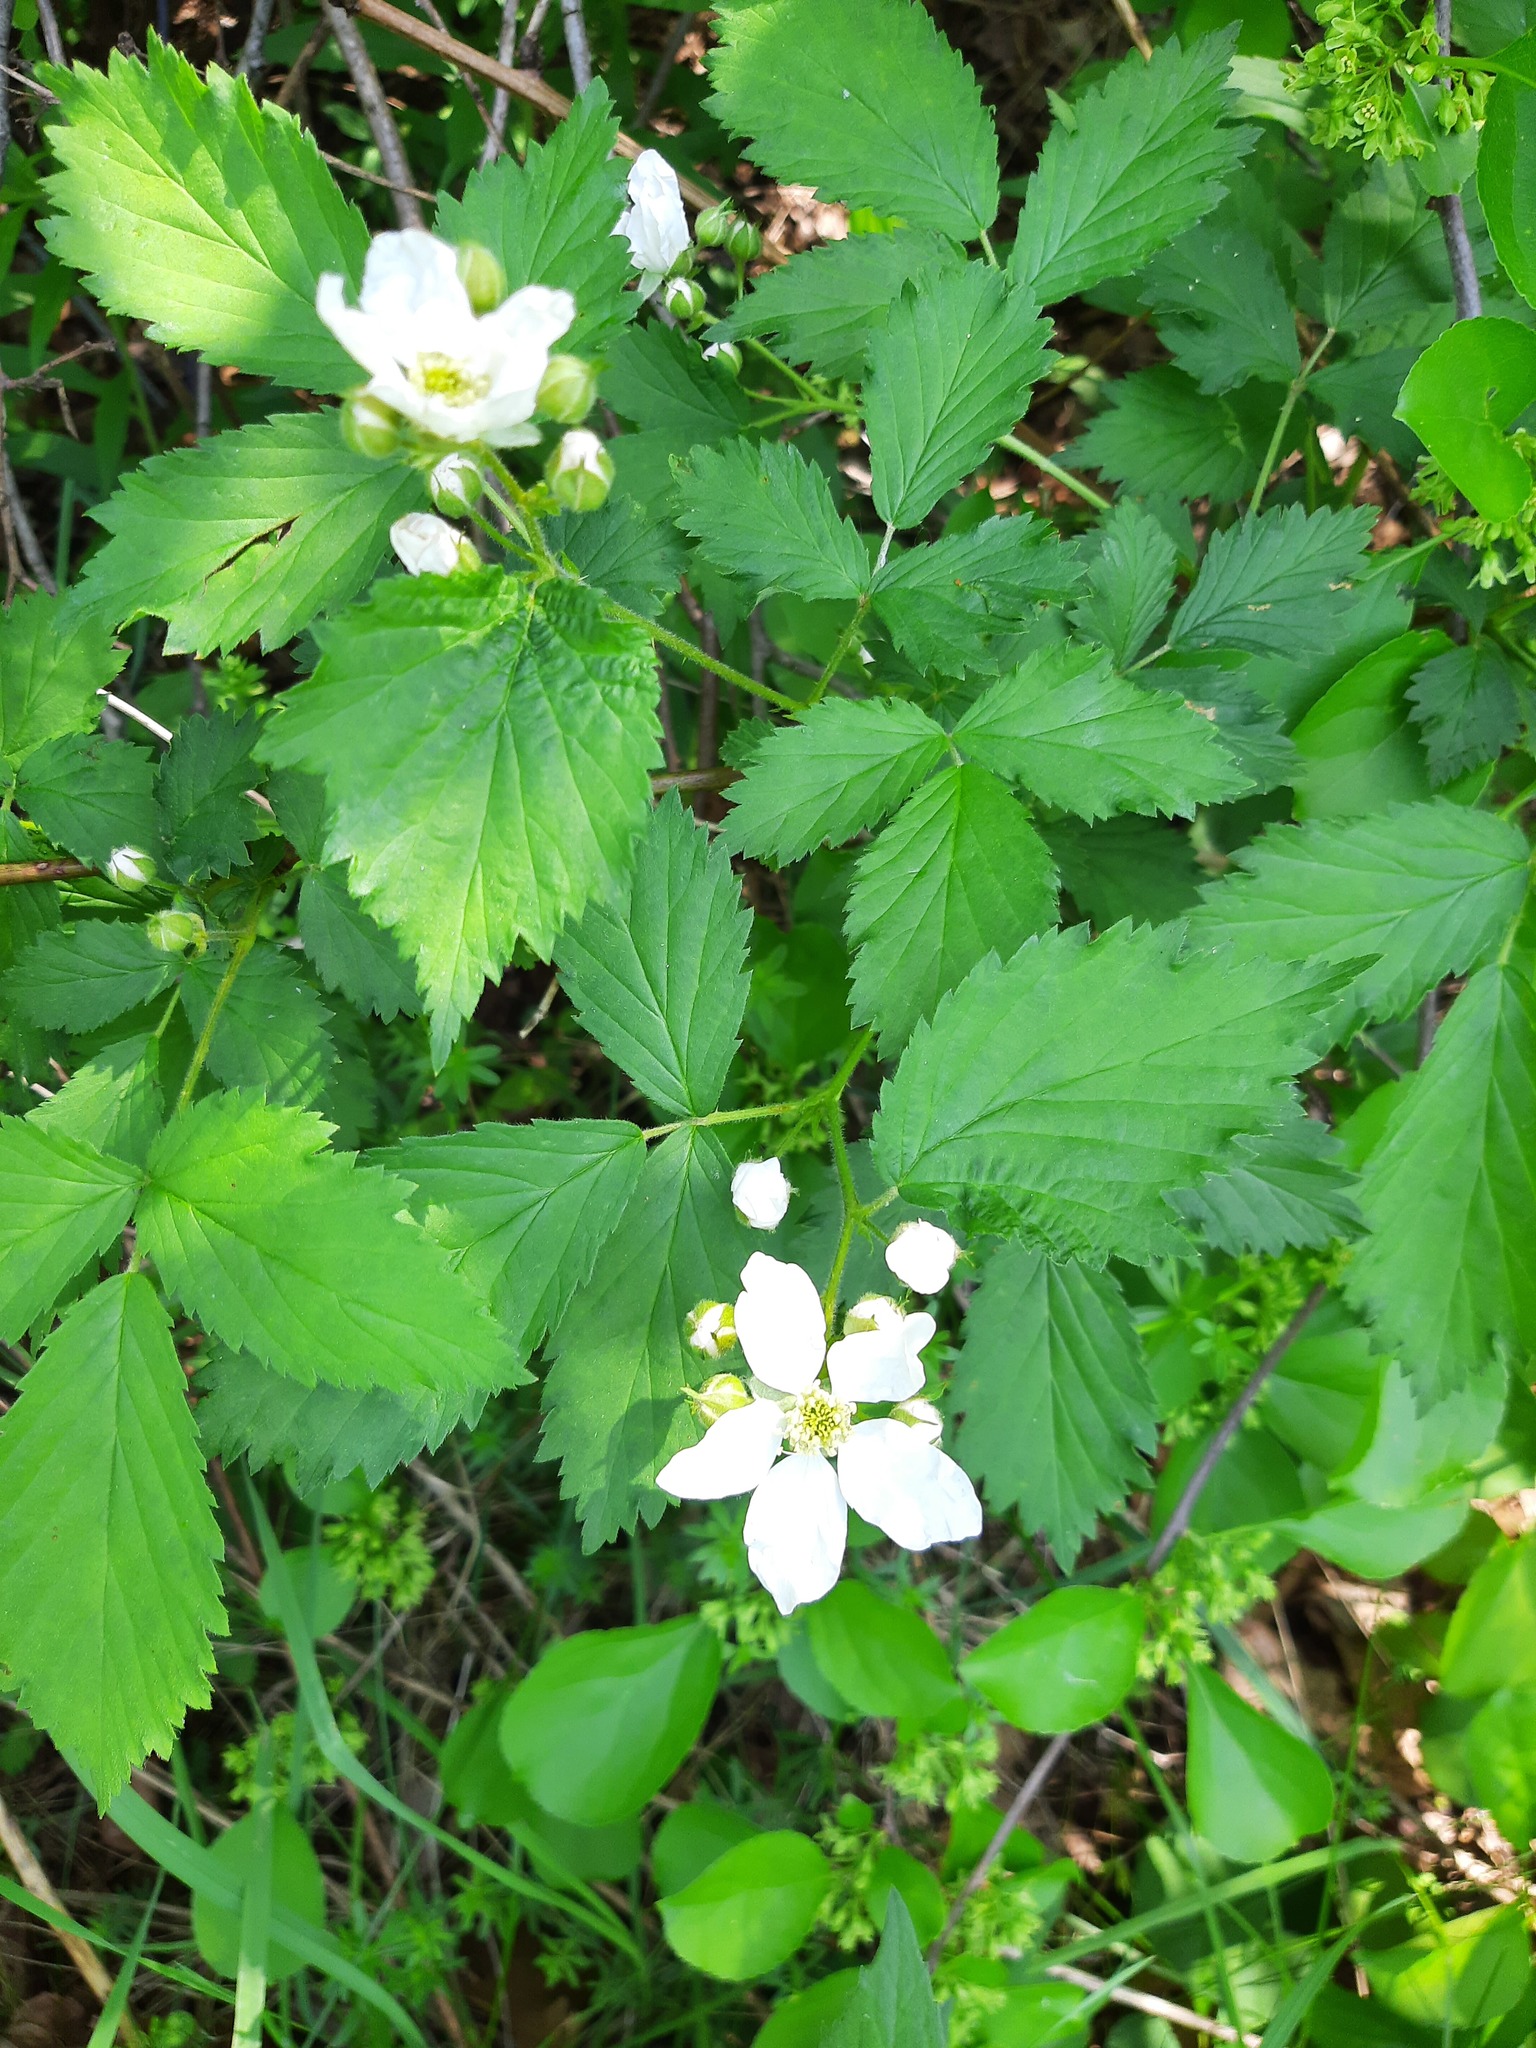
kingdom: Plantae
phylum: Tracheophyta
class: Magnoliopsida
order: Rosales
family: Rosaceae
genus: Rubus
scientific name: Rubus occidentalis
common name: Black raspberry
